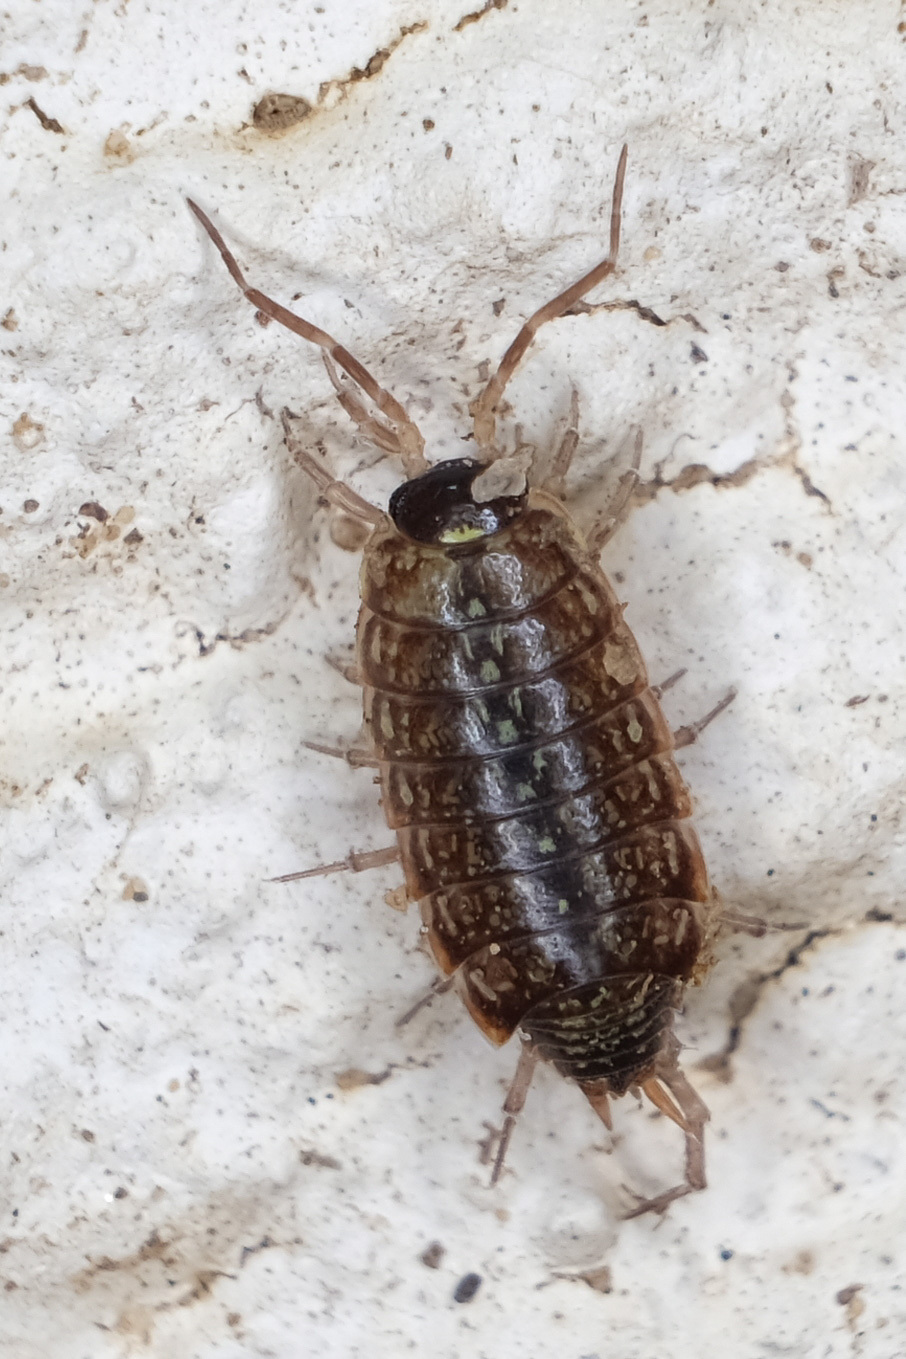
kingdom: Animalia
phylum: Arthropoda
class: Malacostraca
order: Isopoda
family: Philosciidae
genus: Philoscia
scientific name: Philoscia muscorum
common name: Common striped woodlouse
